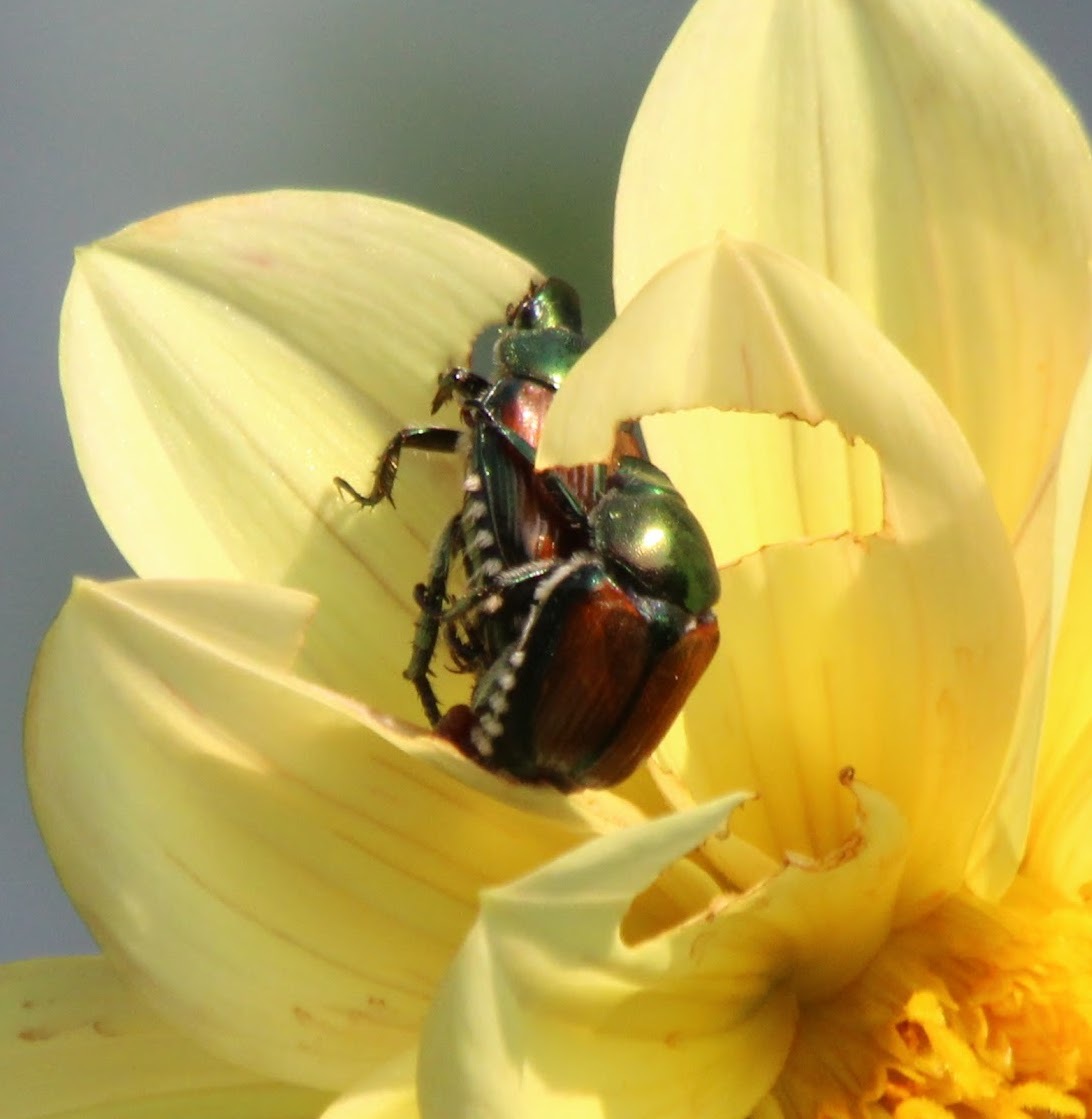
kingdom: Animalia
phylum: Arthropoda
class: Insecta
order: Coleoptera
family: Scarabaeidae
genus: Popillia
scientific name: Popillia japonica
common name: Japanese beetle
